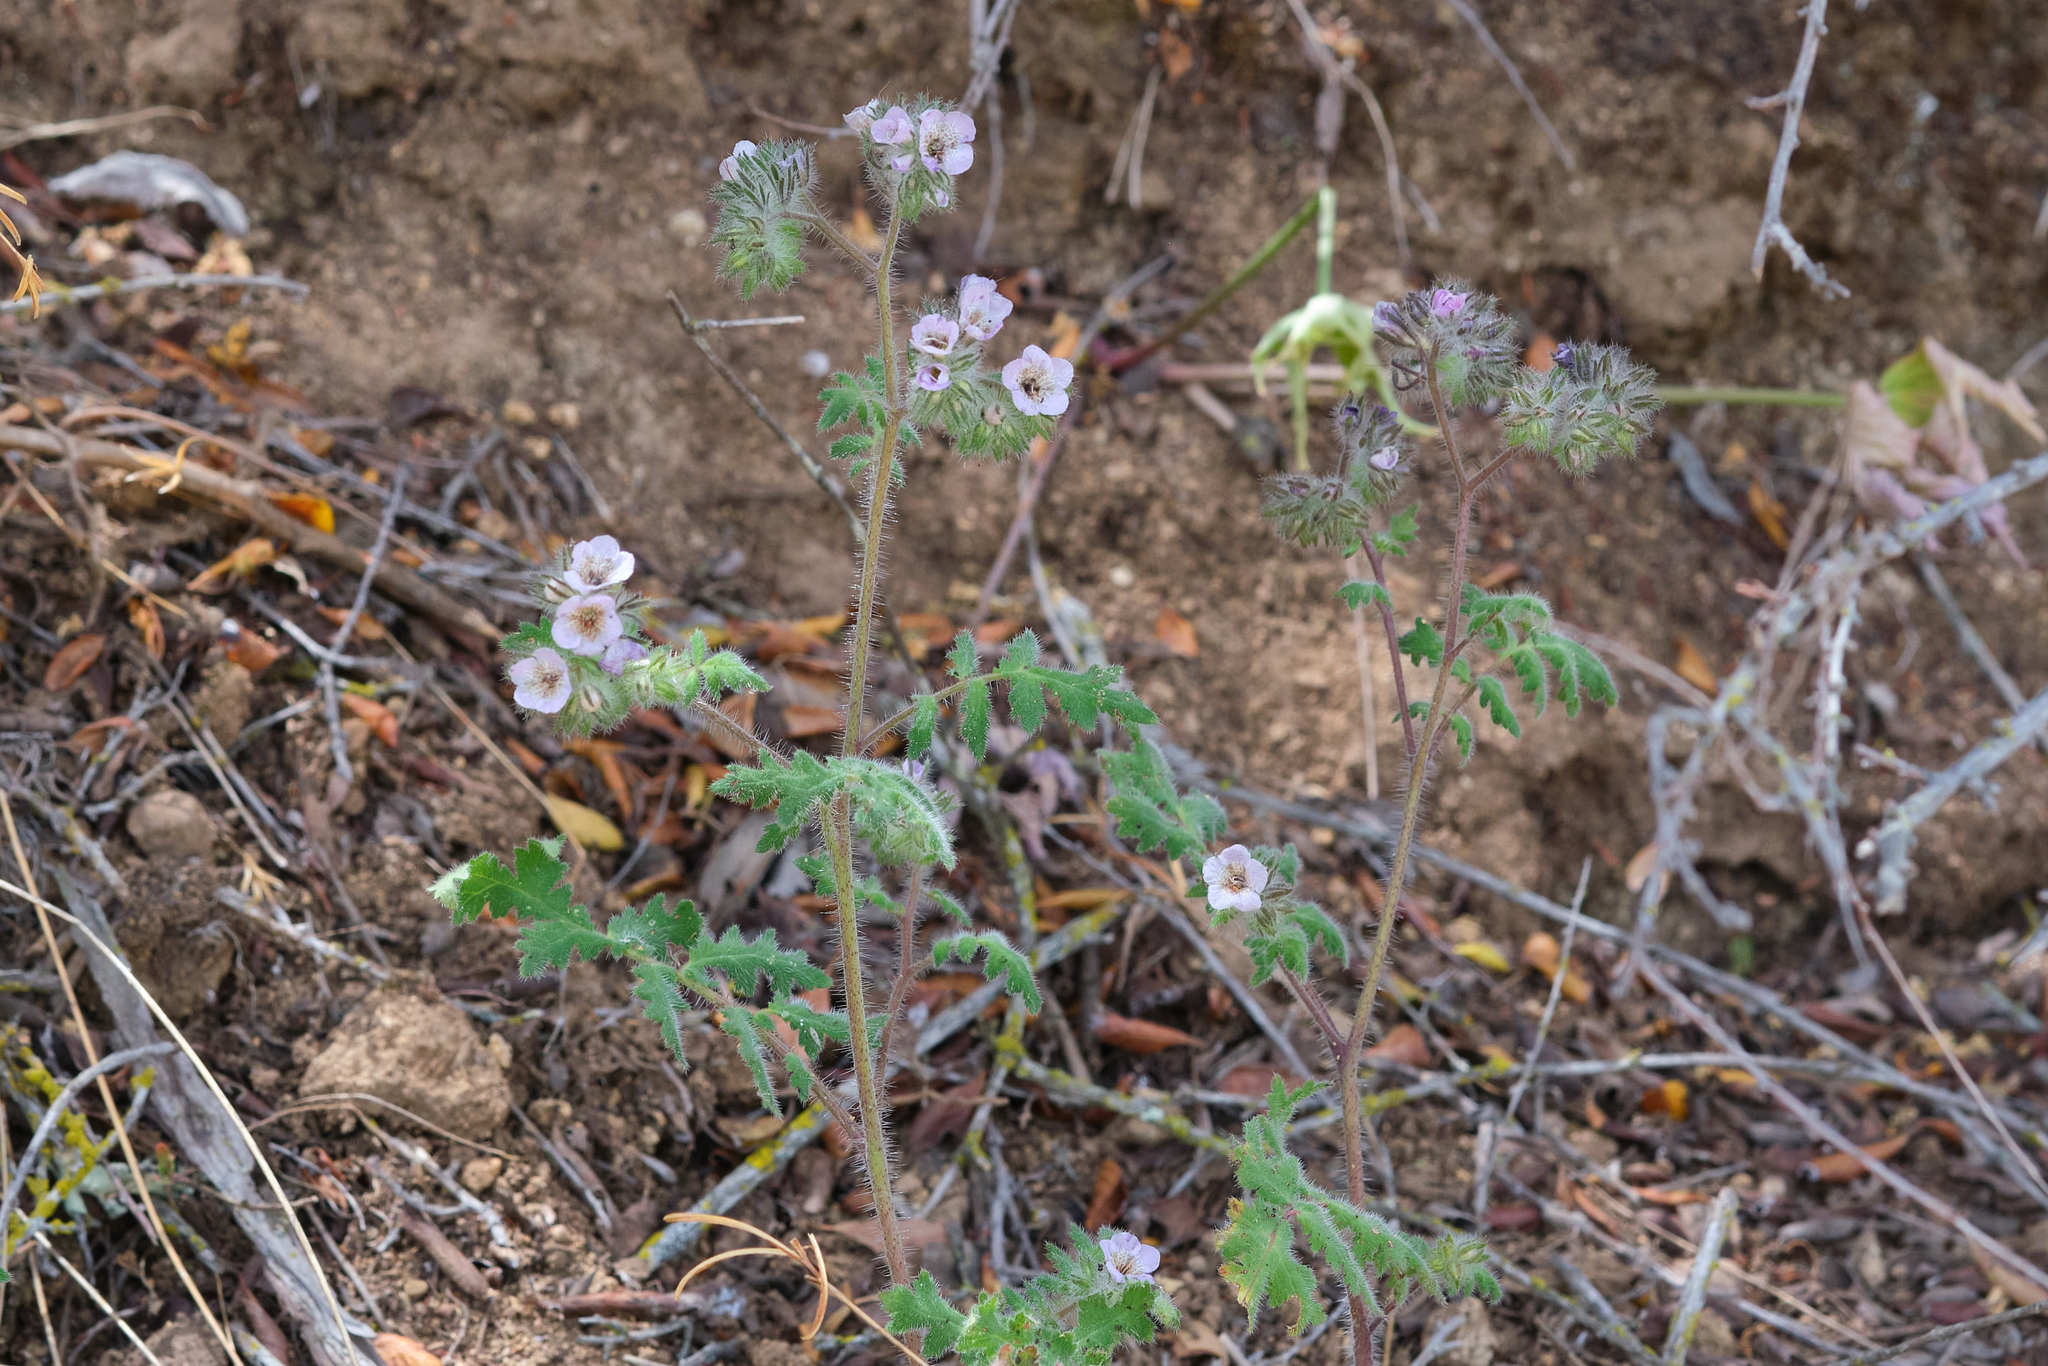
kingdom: Plantae
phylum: Tracheophyta
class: Magnoliopsida
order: Boraginales
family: Hydrophyllaceae
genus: Phacelia
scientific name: Phacelia cicutaria
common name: Caterpillar phacelia
